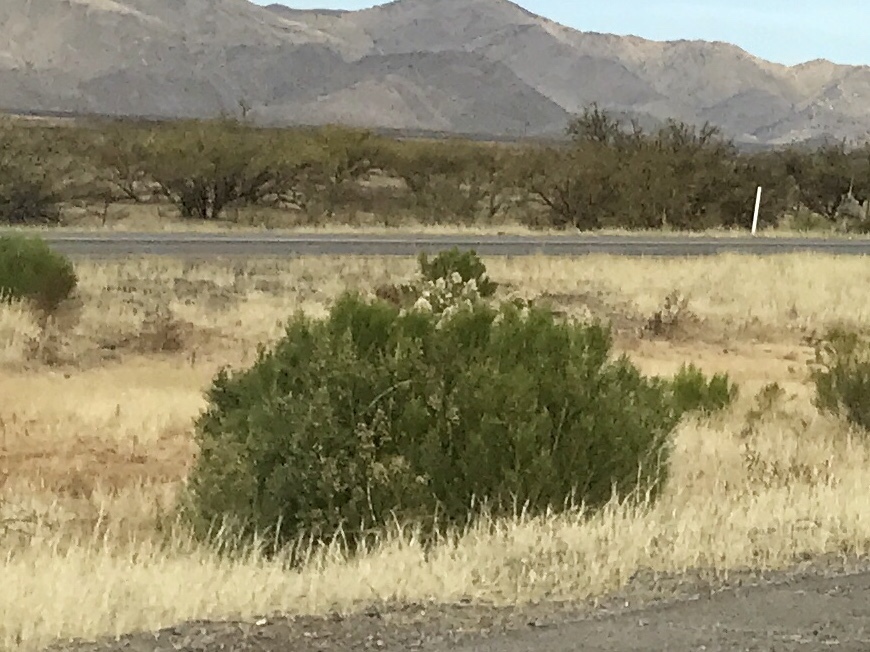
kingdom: Plantae
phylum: Tracheophyta
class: Magnoliopsida
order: Asterales
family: Asteraceae
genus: Baccharis
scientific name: Baccharis sarothroides
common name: Desert-broom
